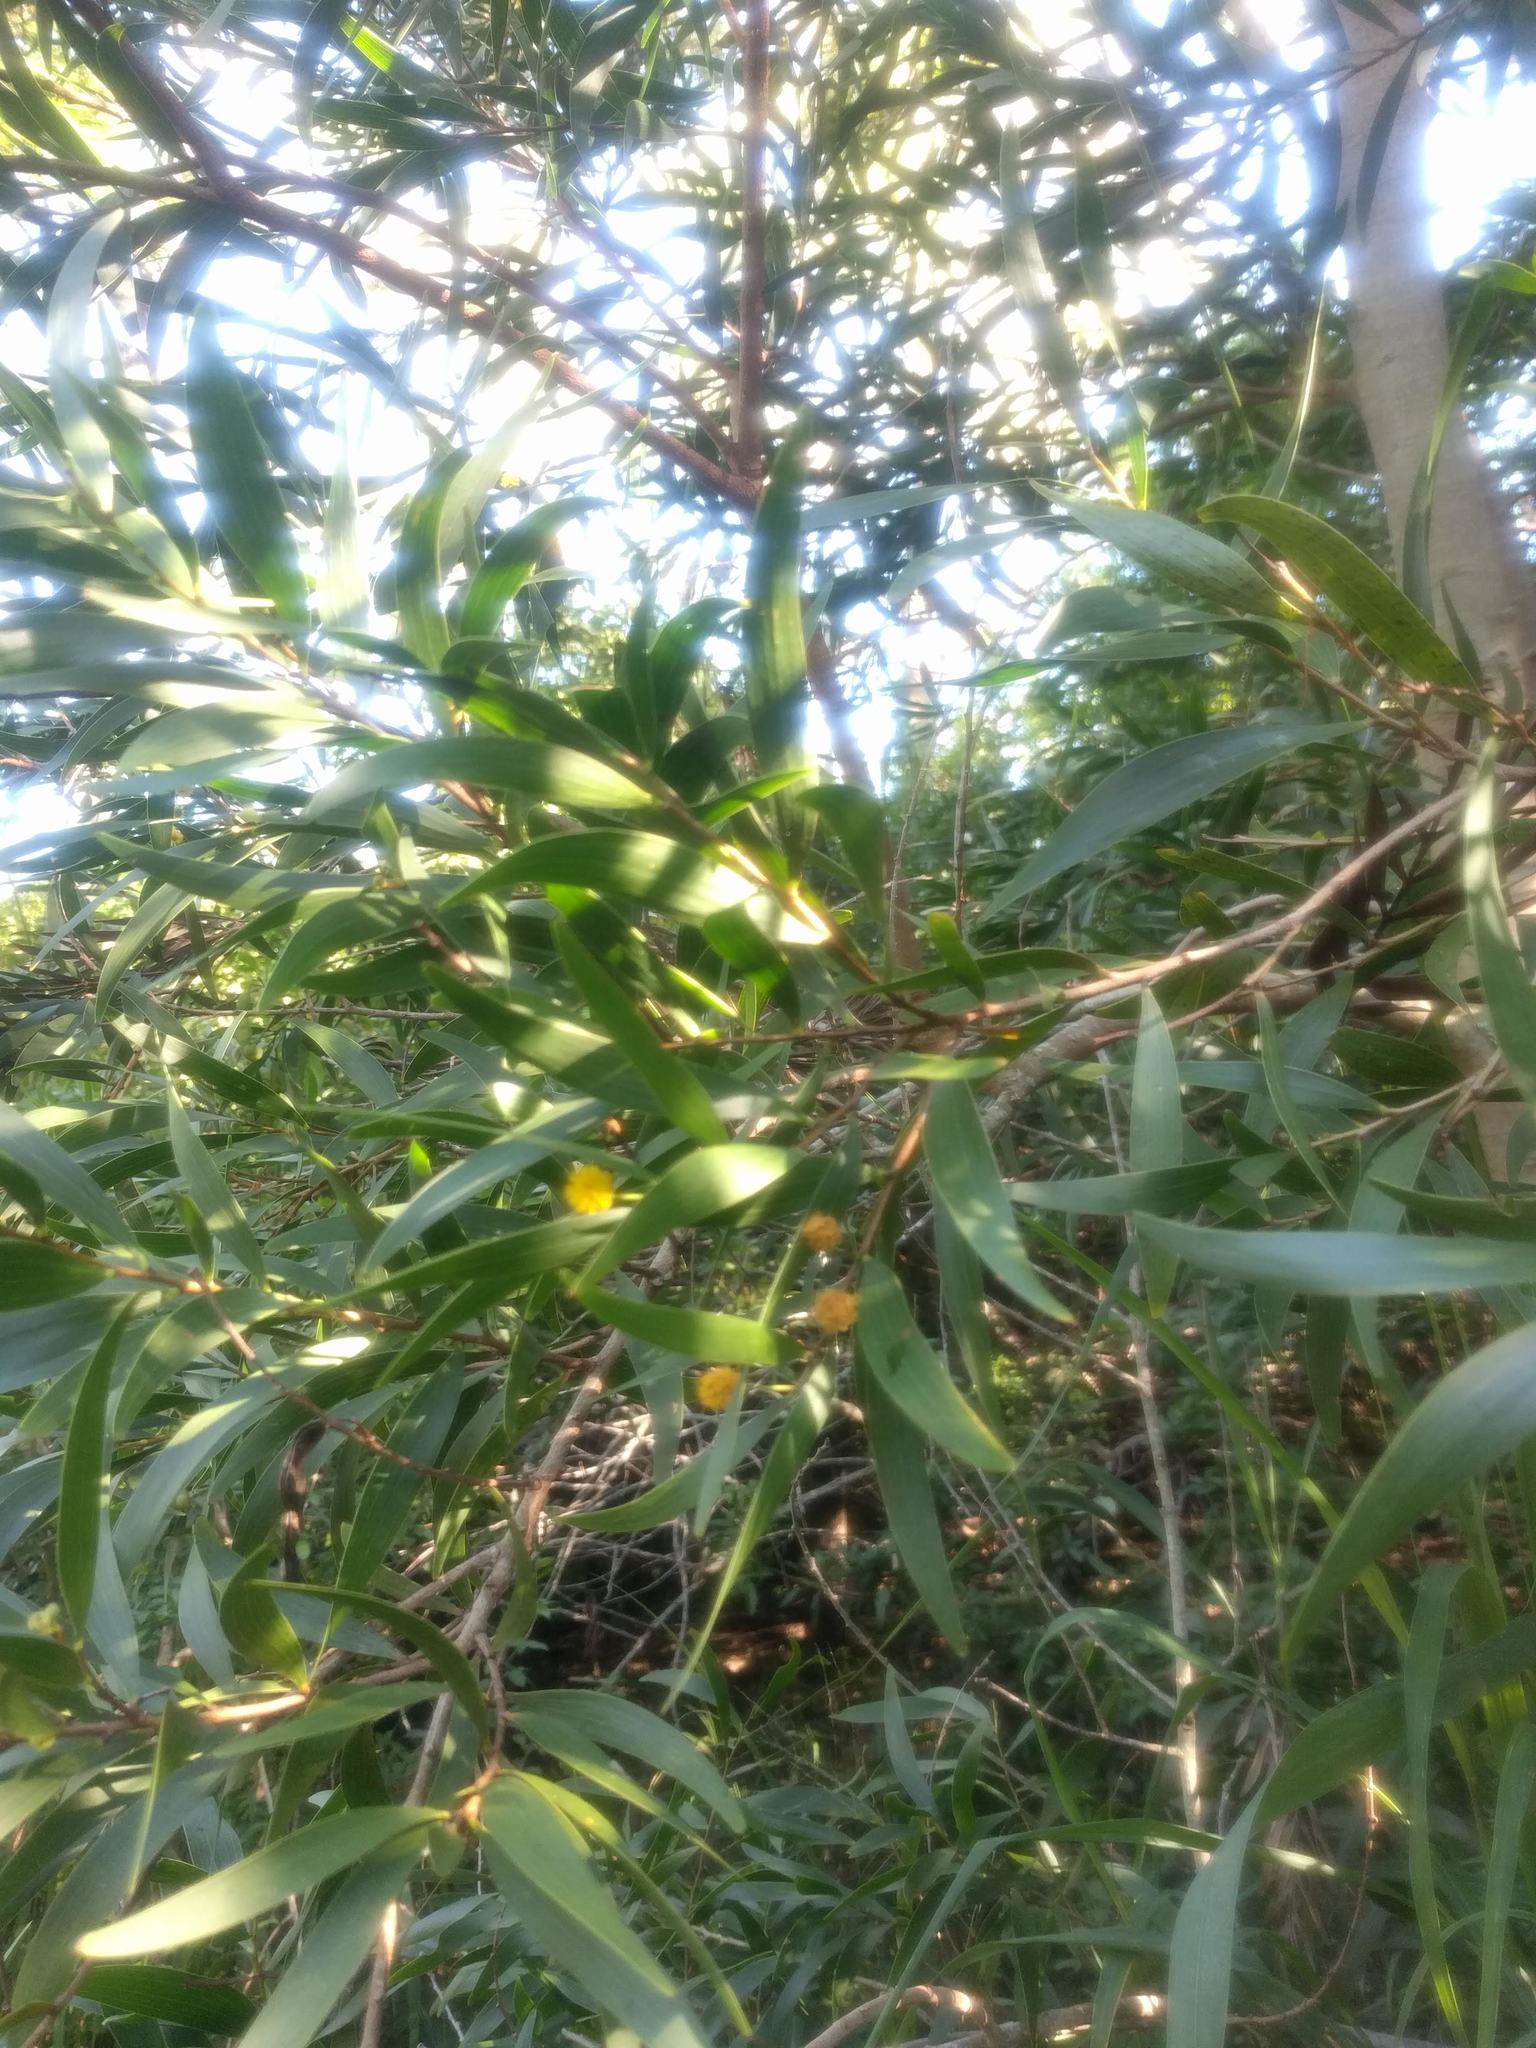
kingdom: Plantae
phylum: Tracheophyta
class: Magnoliopsida
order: Fabales
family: Fabaceae
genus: Acacia
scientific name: Acacia confusa
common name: Formosan koa
